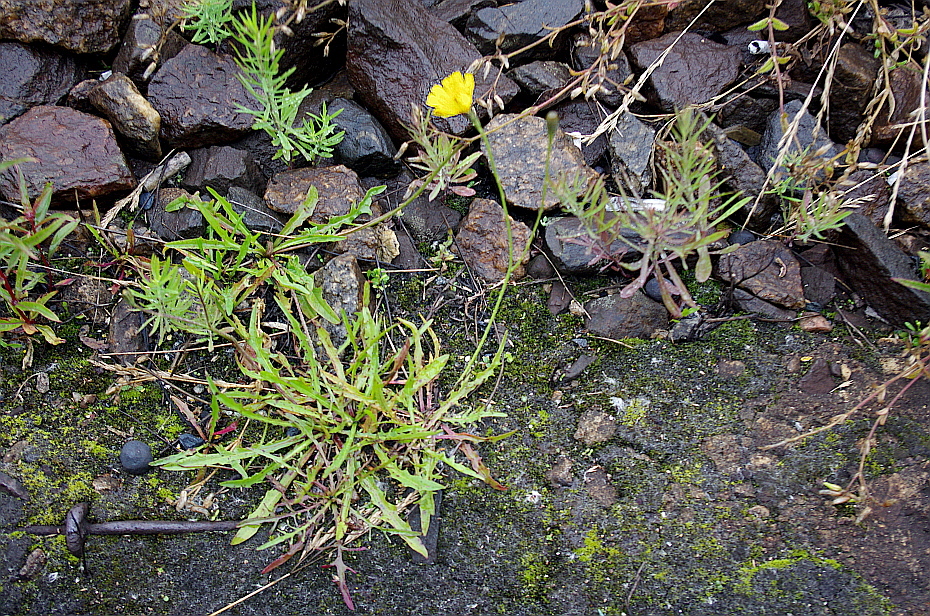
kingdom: Plantae
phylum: Tracheophyta
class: Magnoliopsida
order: Asterales
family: Asteraceae
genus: Scorzoneroides
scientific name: Scorzoneroides autumnalis
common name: Autumn hawkbit
